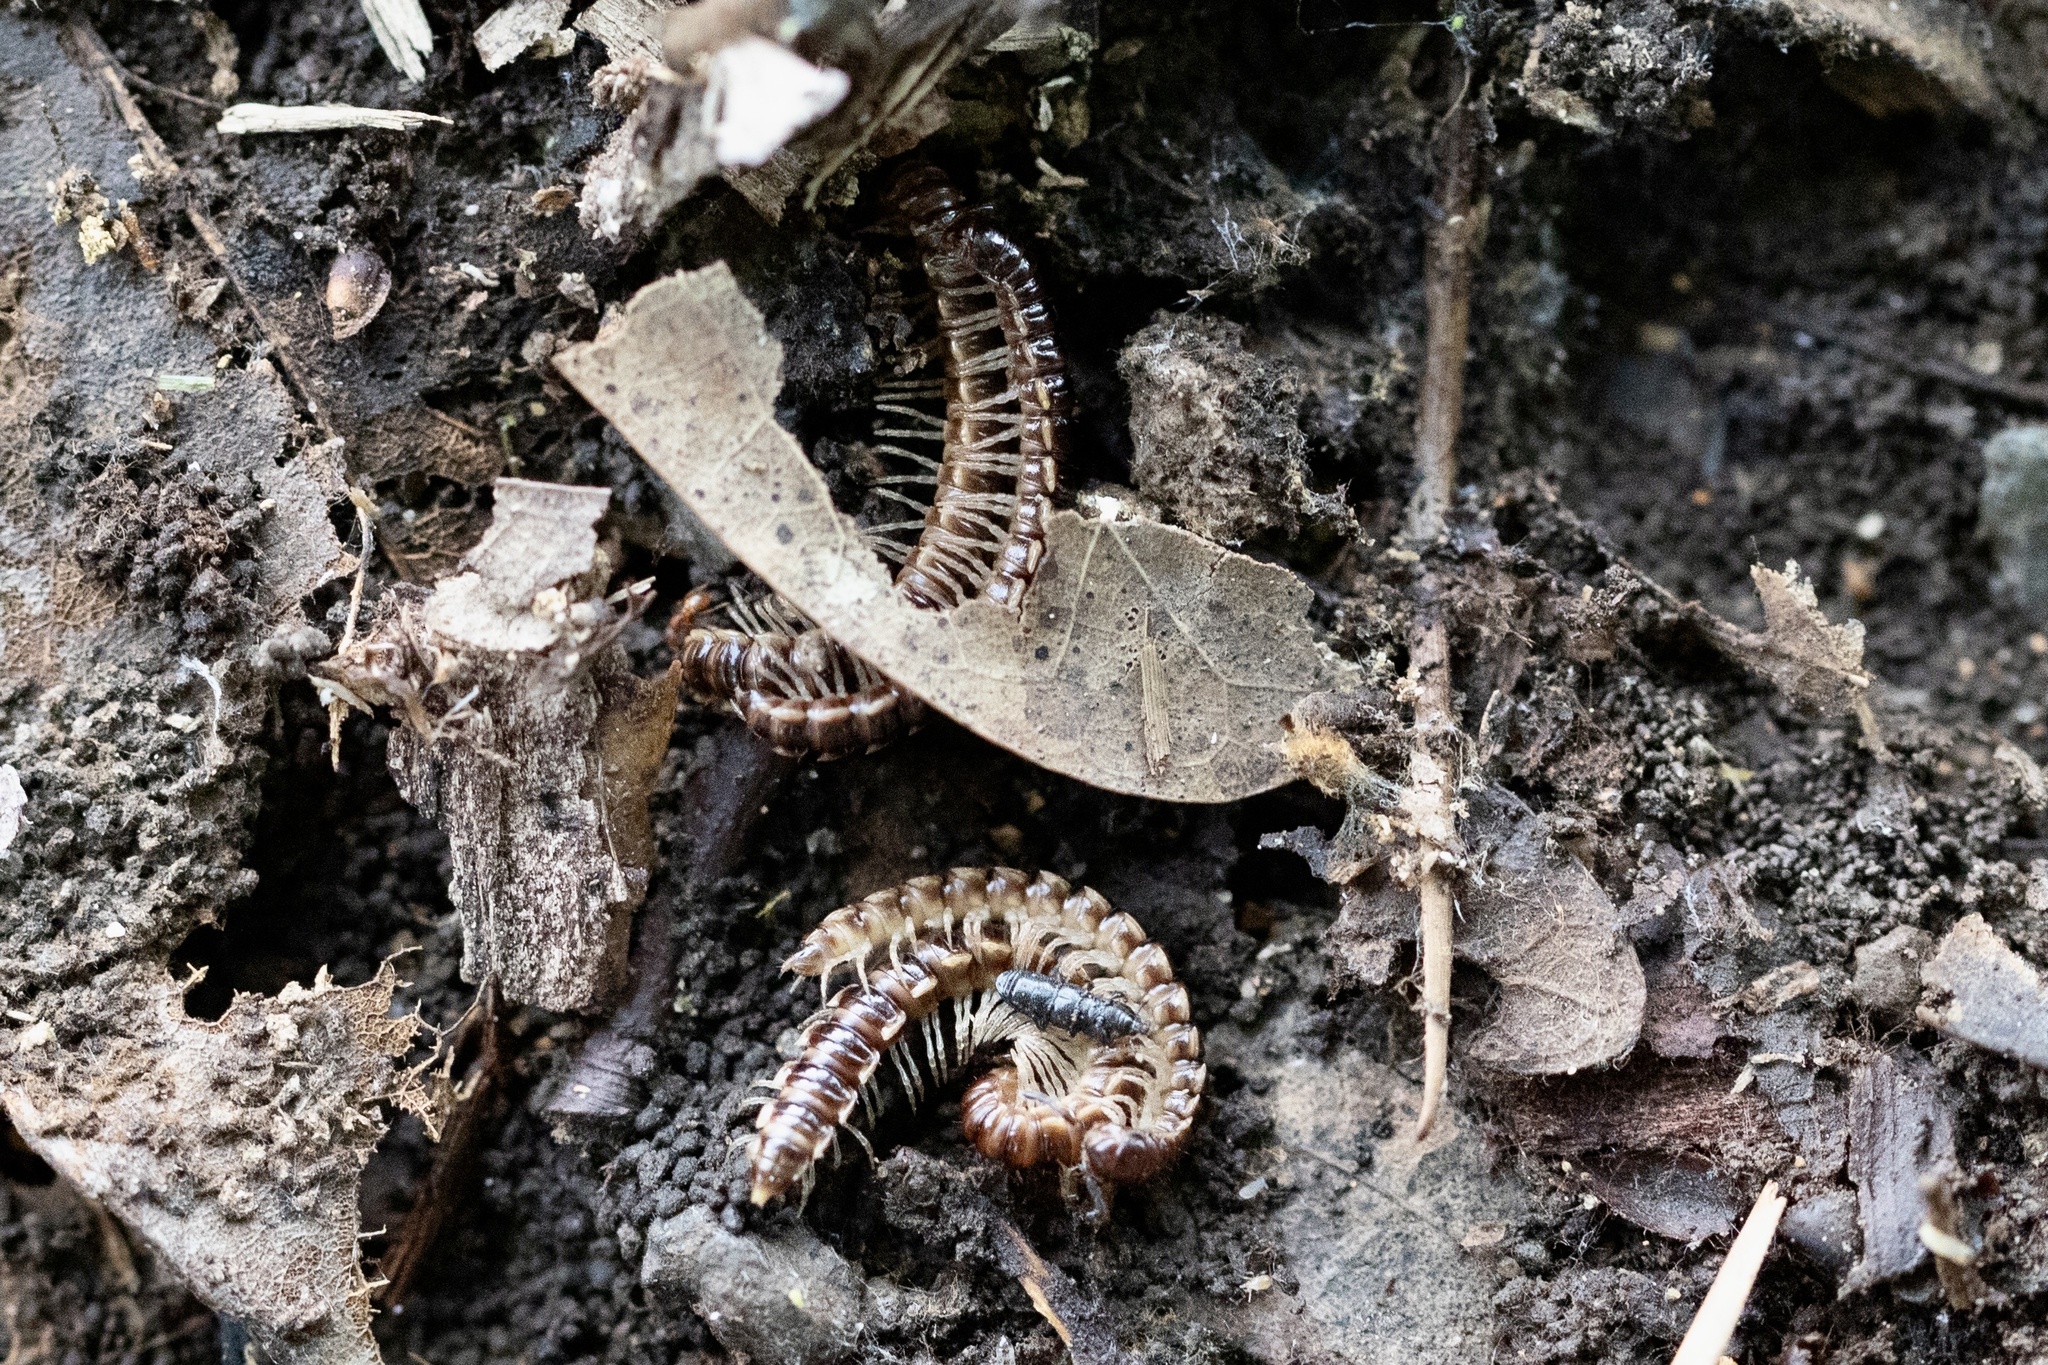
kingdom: Animalia
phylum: Arthropoda
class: Diplopoda
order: Polydesmida
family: Paradoxosomatidae
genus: Oxidus
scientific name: Oxidus gracilis
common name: Greenhouse millipede
